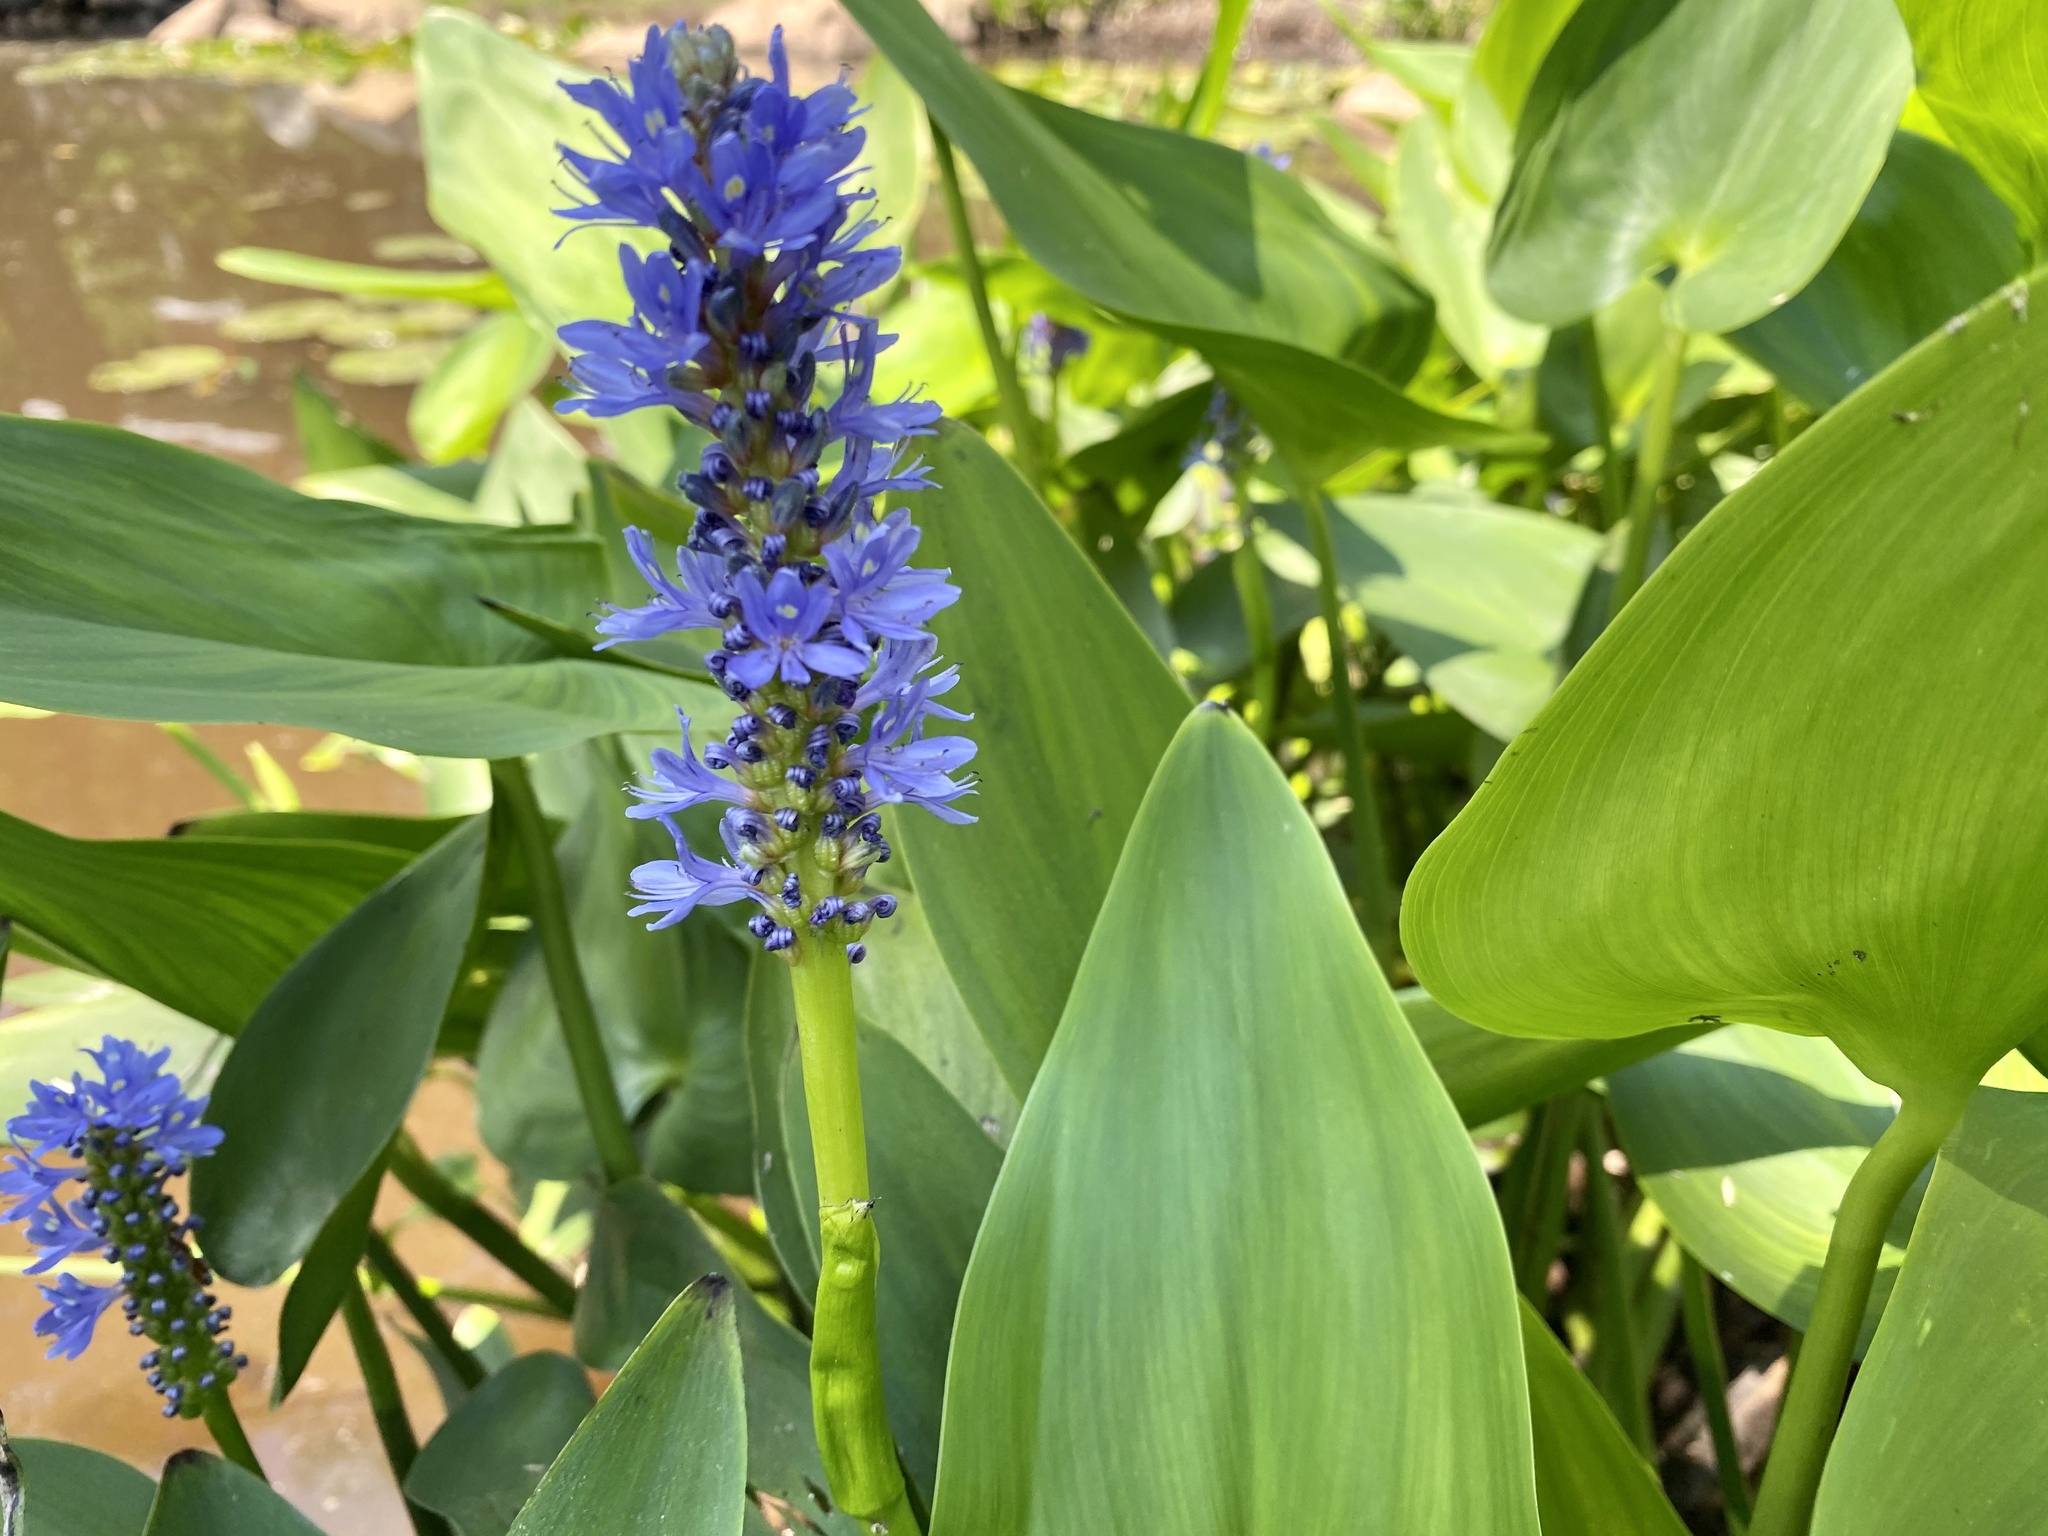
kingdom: Plantae
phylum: Tracheophyta
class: Liliopsida
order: Commelinales
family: Pontederiaceae
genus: Pontederia
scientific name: Pontederia cordata
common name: Pickerelweed
